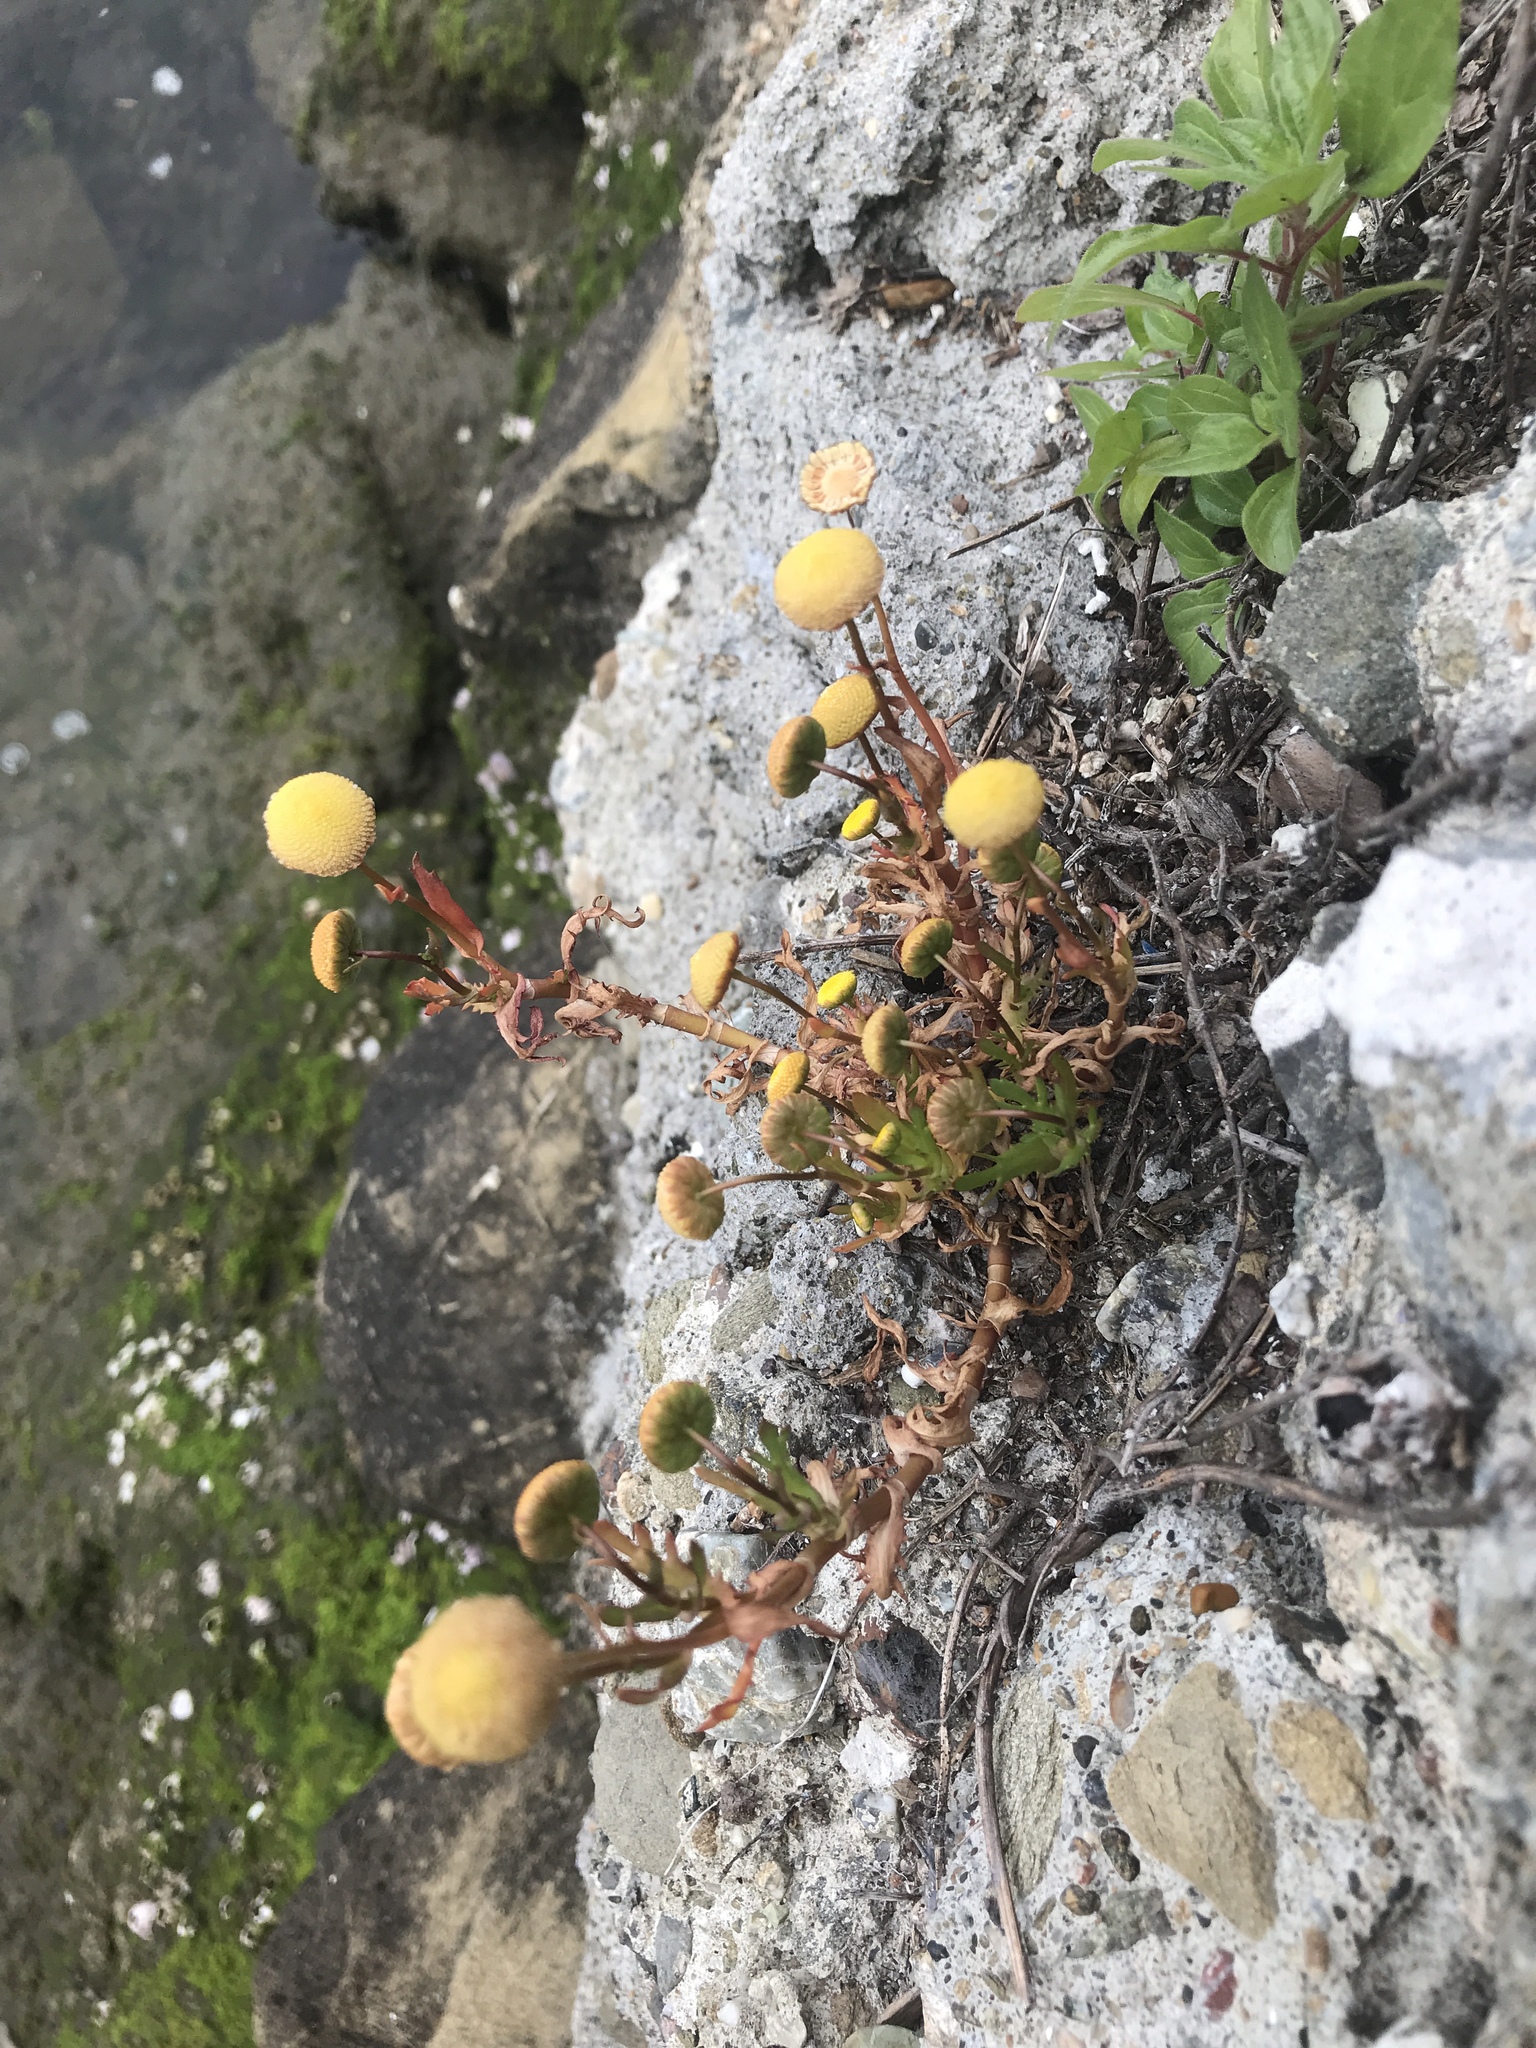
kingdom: Plantae
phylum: Tracheophyta
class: Magnoliopsida
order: Asterales
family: Asteraceae
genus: Cotula
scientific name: Cotula coronopifolia
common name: Buttonweed
